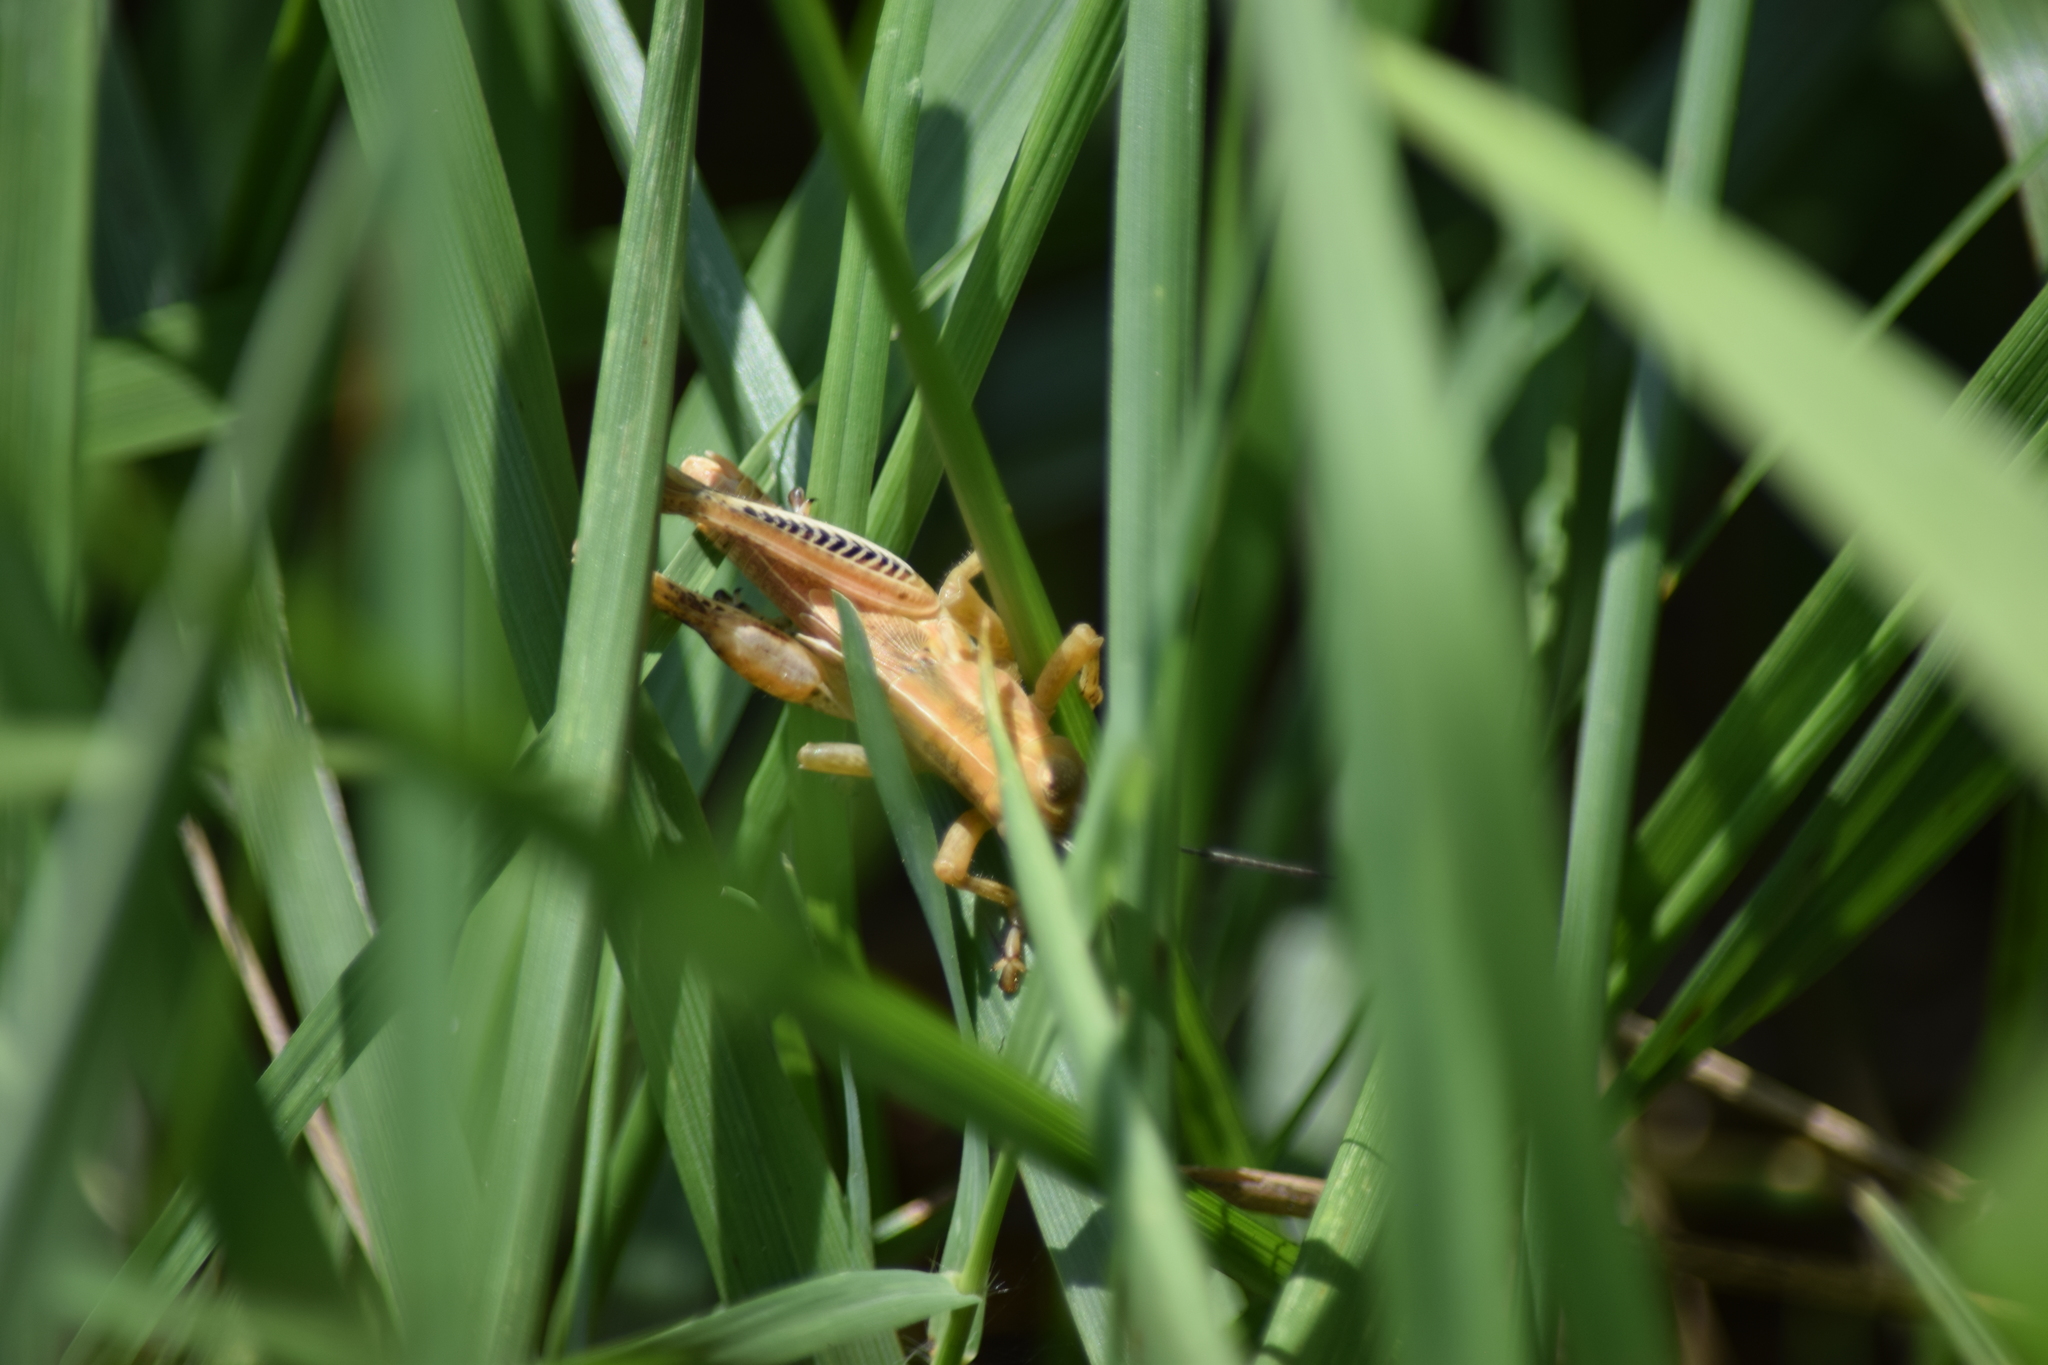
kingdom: Animalia
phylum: Arthropoda
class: Insecta
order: Orthoptera
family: Acrididae
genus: Melanoplus
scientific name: Melanoplus
